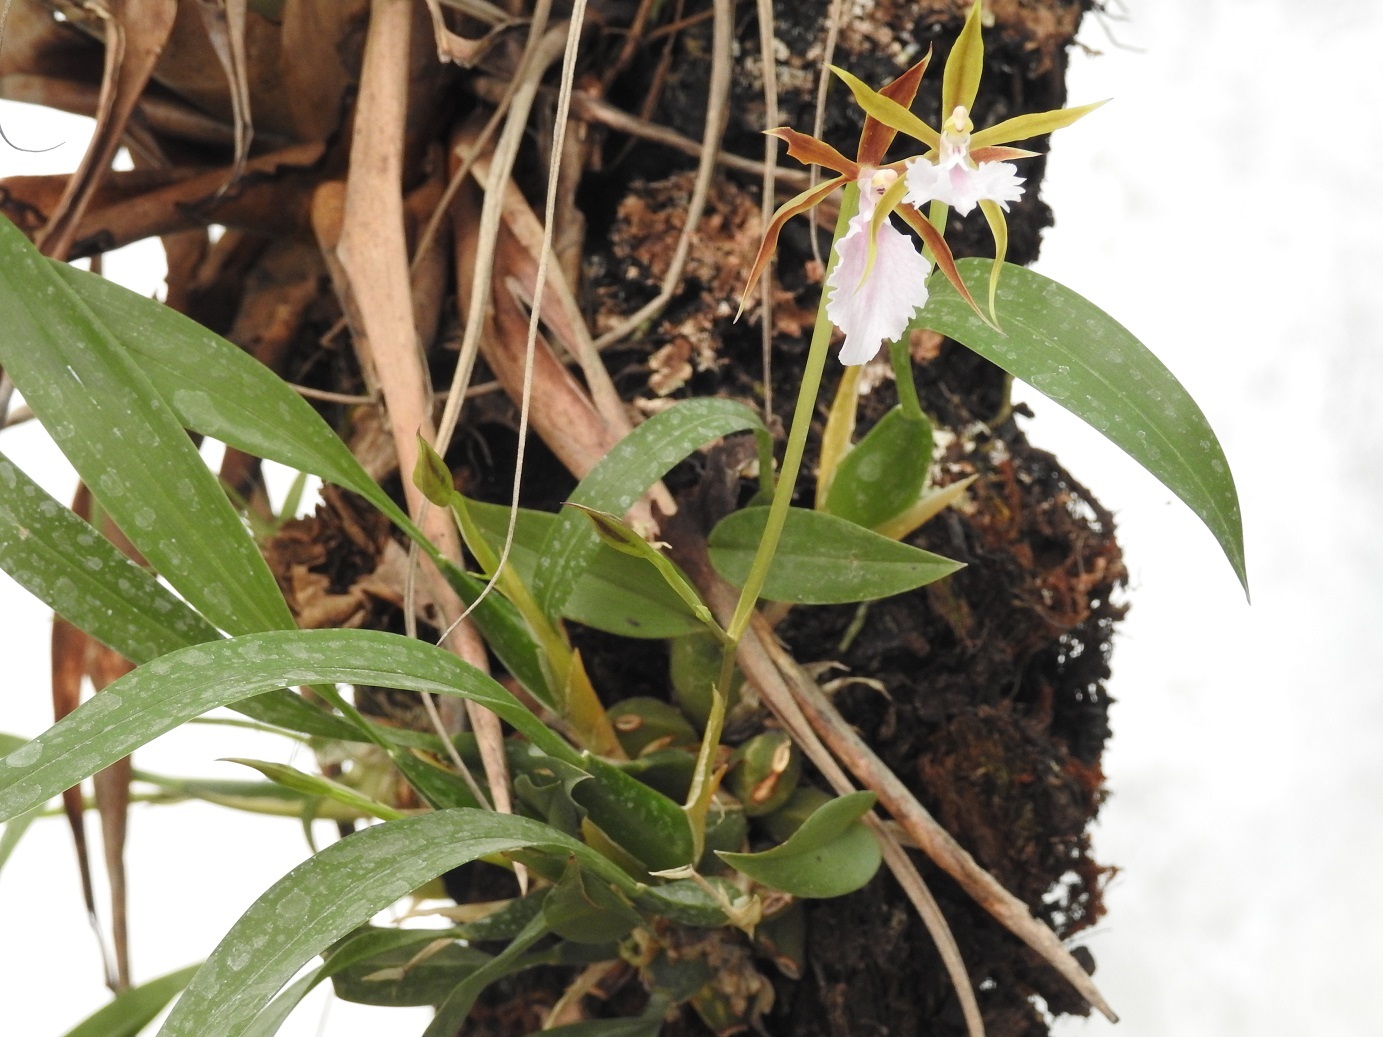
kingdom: Plantae
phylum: Tracheophyta
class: Liliopsida
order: Asparagales
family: Orchidaceae
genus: Rhynchostele
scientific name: Rhynchostele stellata
